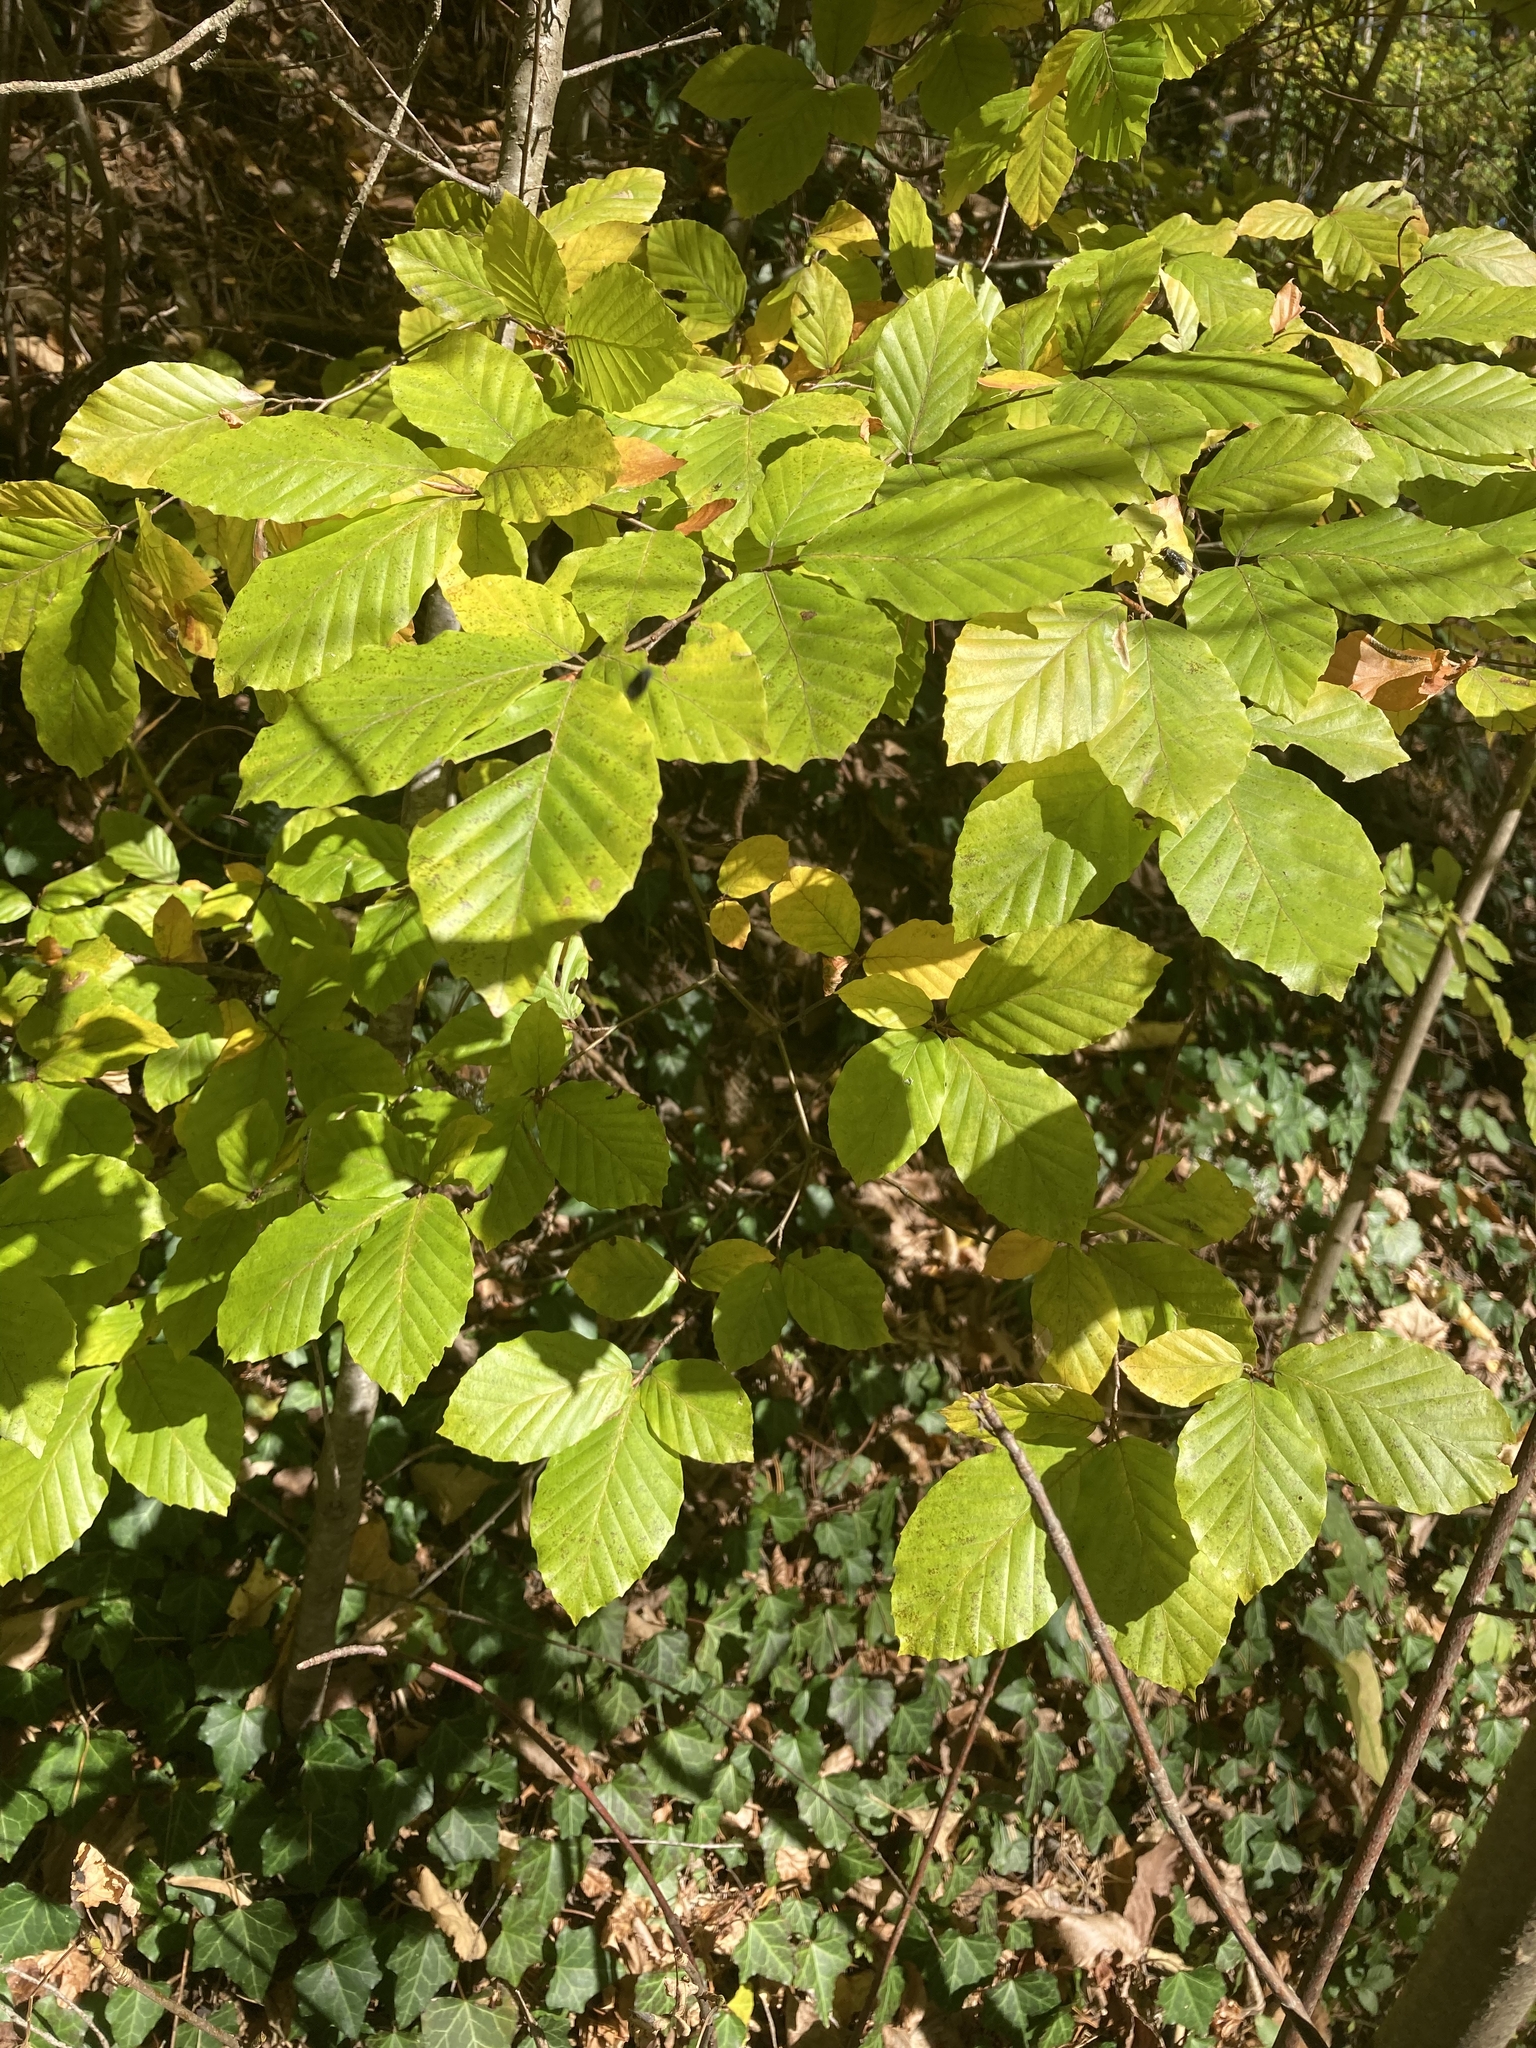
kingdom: Plantae
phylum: Tracheophyta
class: Magnoliopsida
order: Fagales
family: Fagaceae
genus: Fagus
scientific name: Fagus sylvatica
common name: Beech
